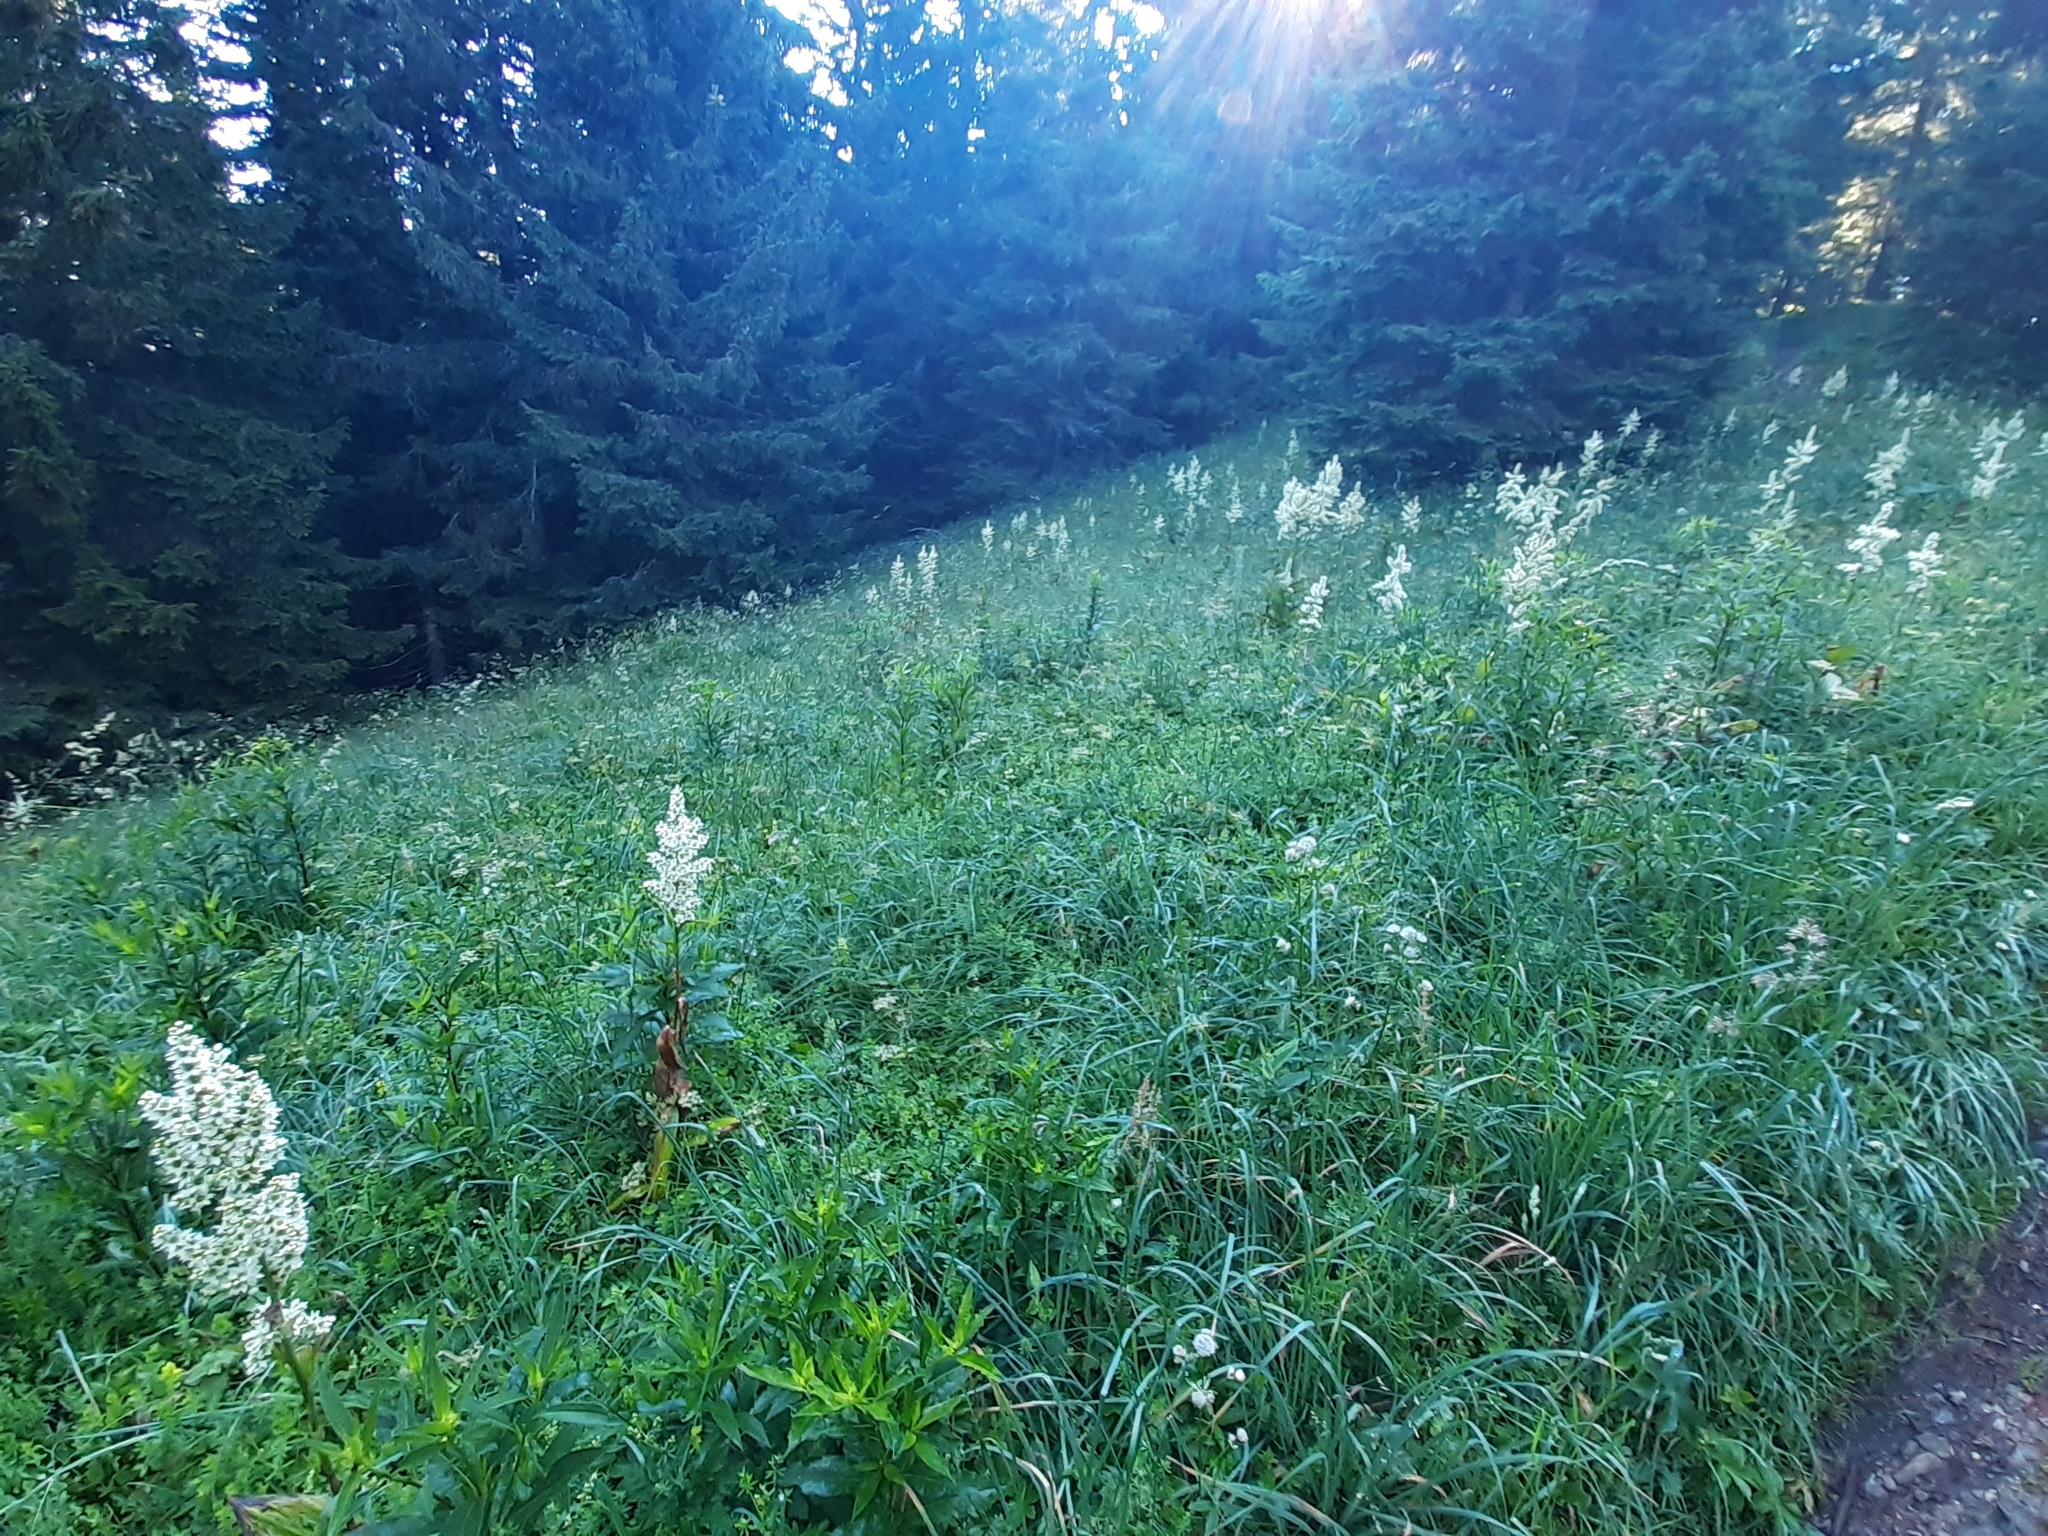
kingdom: Plantae
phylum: Tracheophyta
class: Liliopsida
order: Liliales
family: Melanthiaceae
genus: Veratrum
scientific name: Veratrum album
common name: White veratrum
